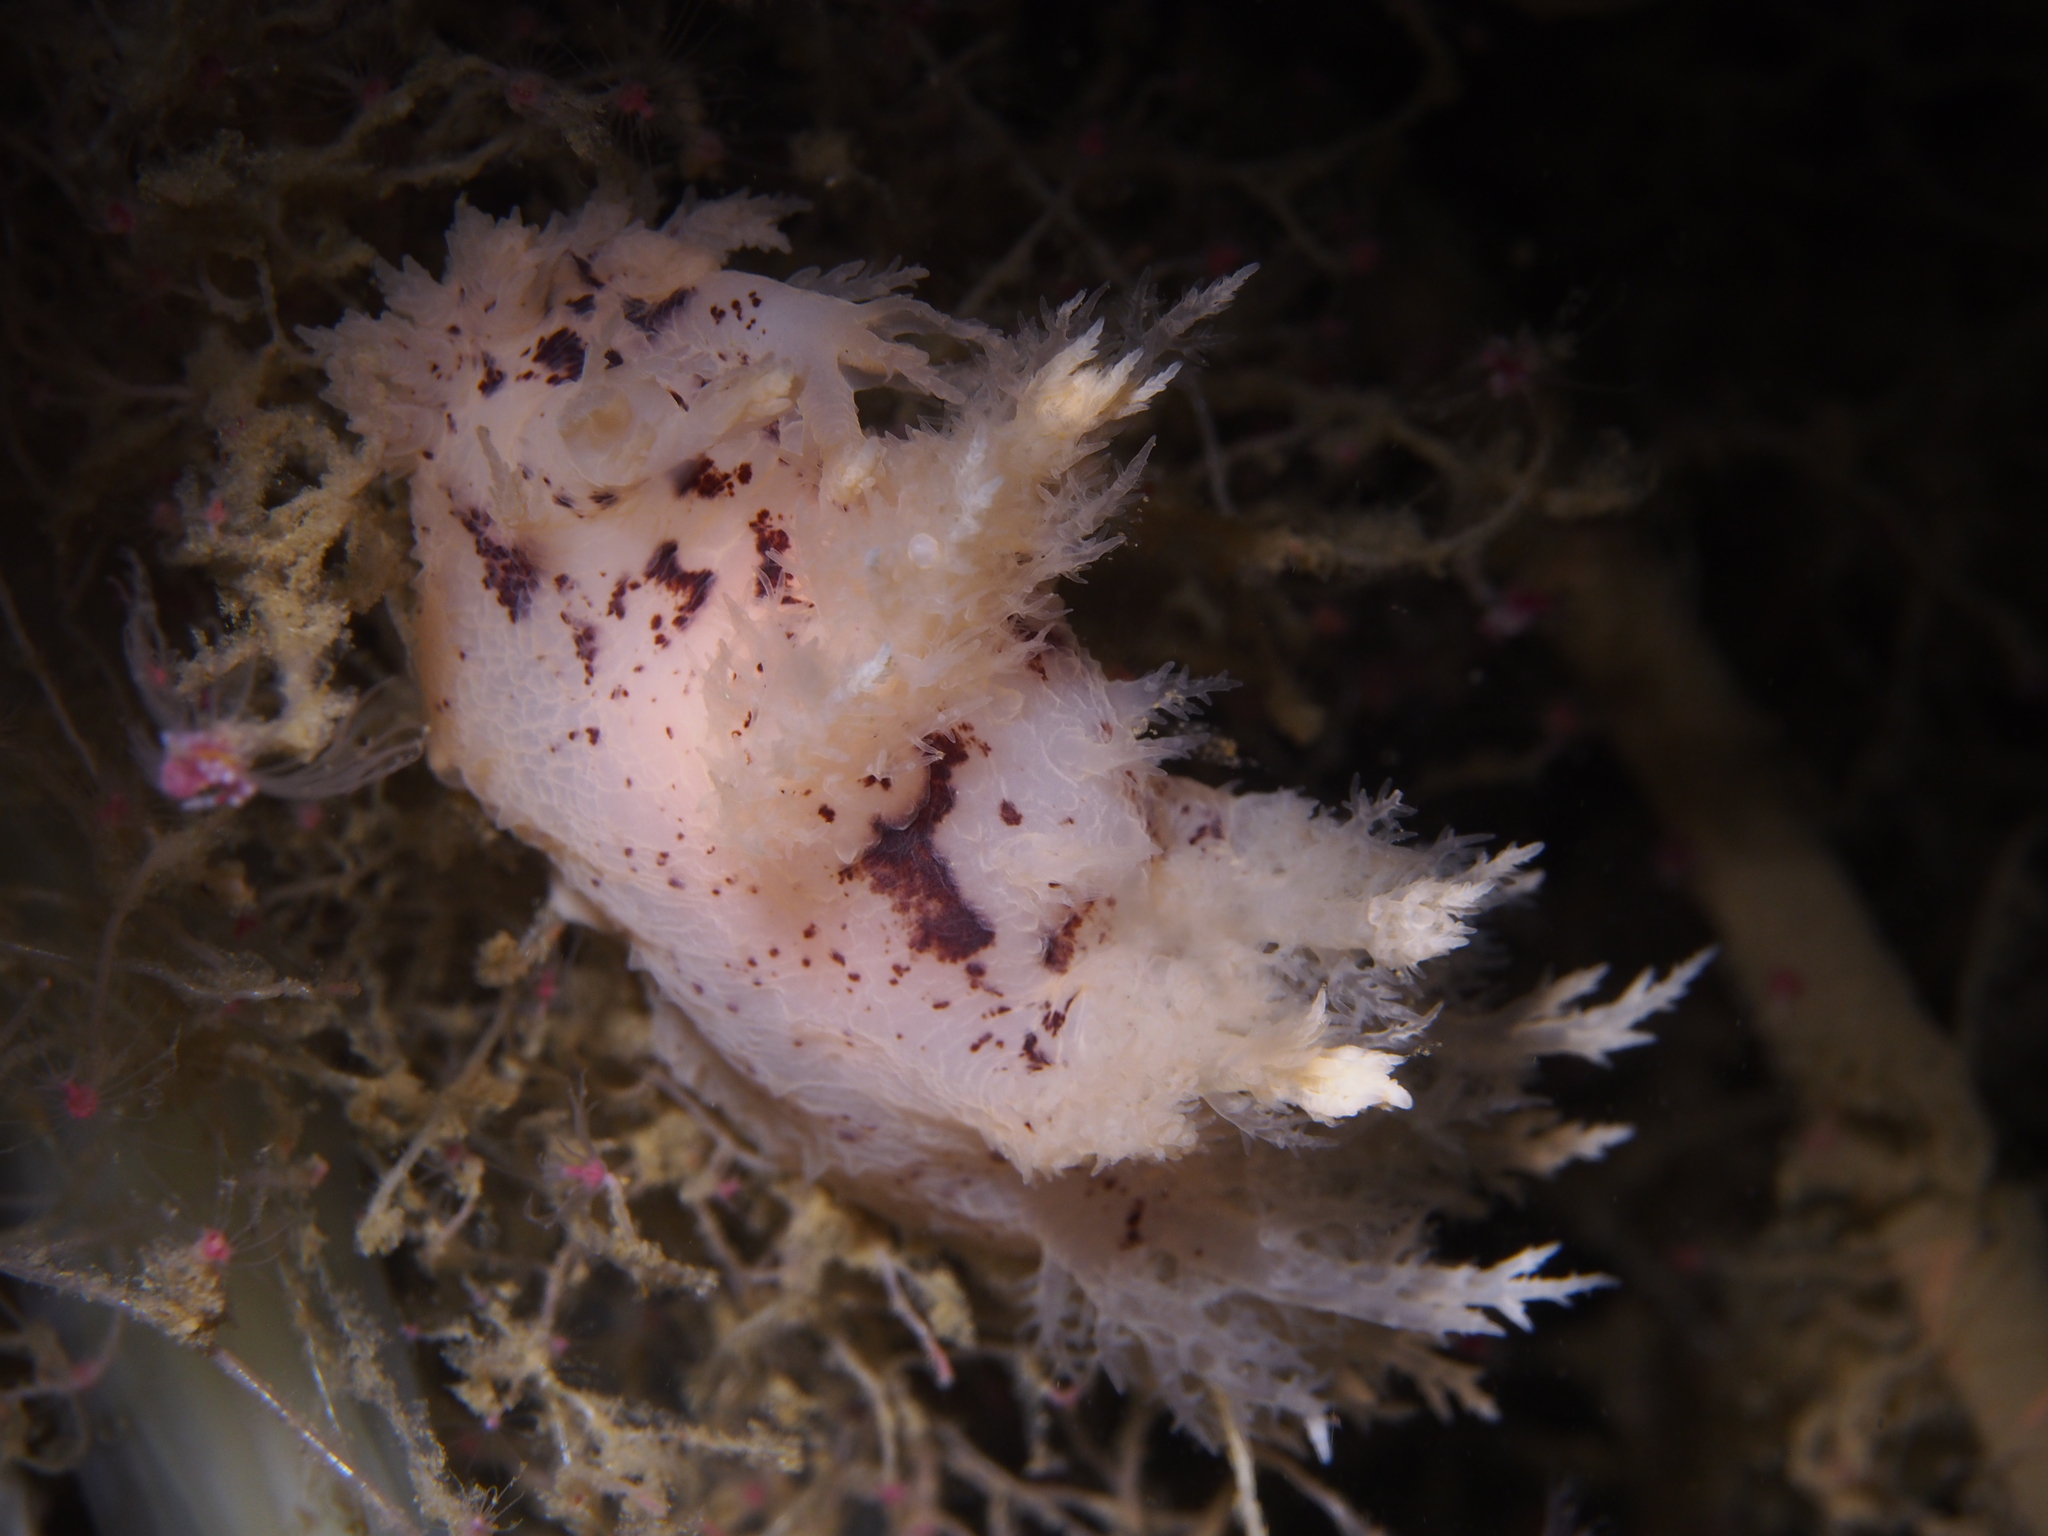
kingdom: Animalia
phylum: Mollusca
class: Gastropoda
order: Nudibranchia
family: Dendronotidae
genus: Dendronotus
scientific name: Dendronotus europaeus
